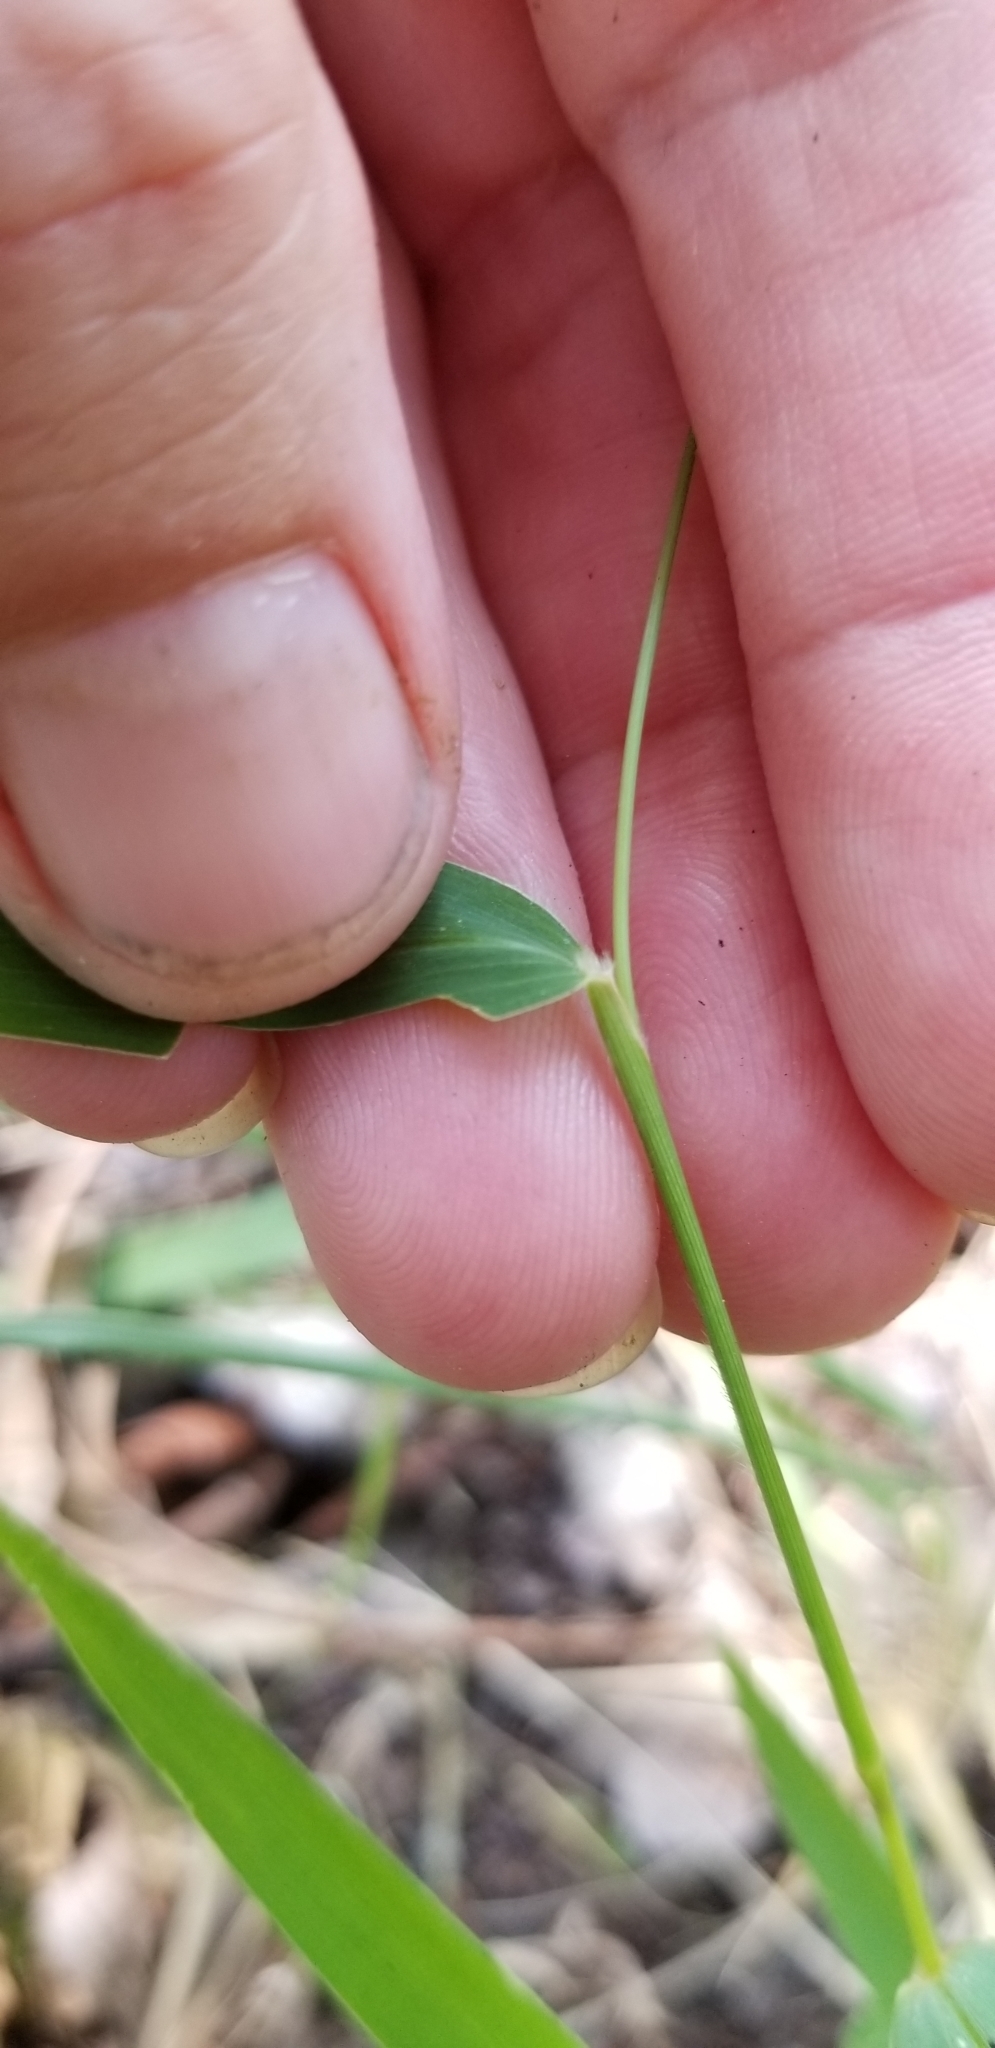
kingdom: Plantae
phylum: Tracheophyta
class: Liliopsida
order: Poales
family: Poaceae
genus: Setaria
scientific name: Setaria viridis
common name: Green bristlegrass
